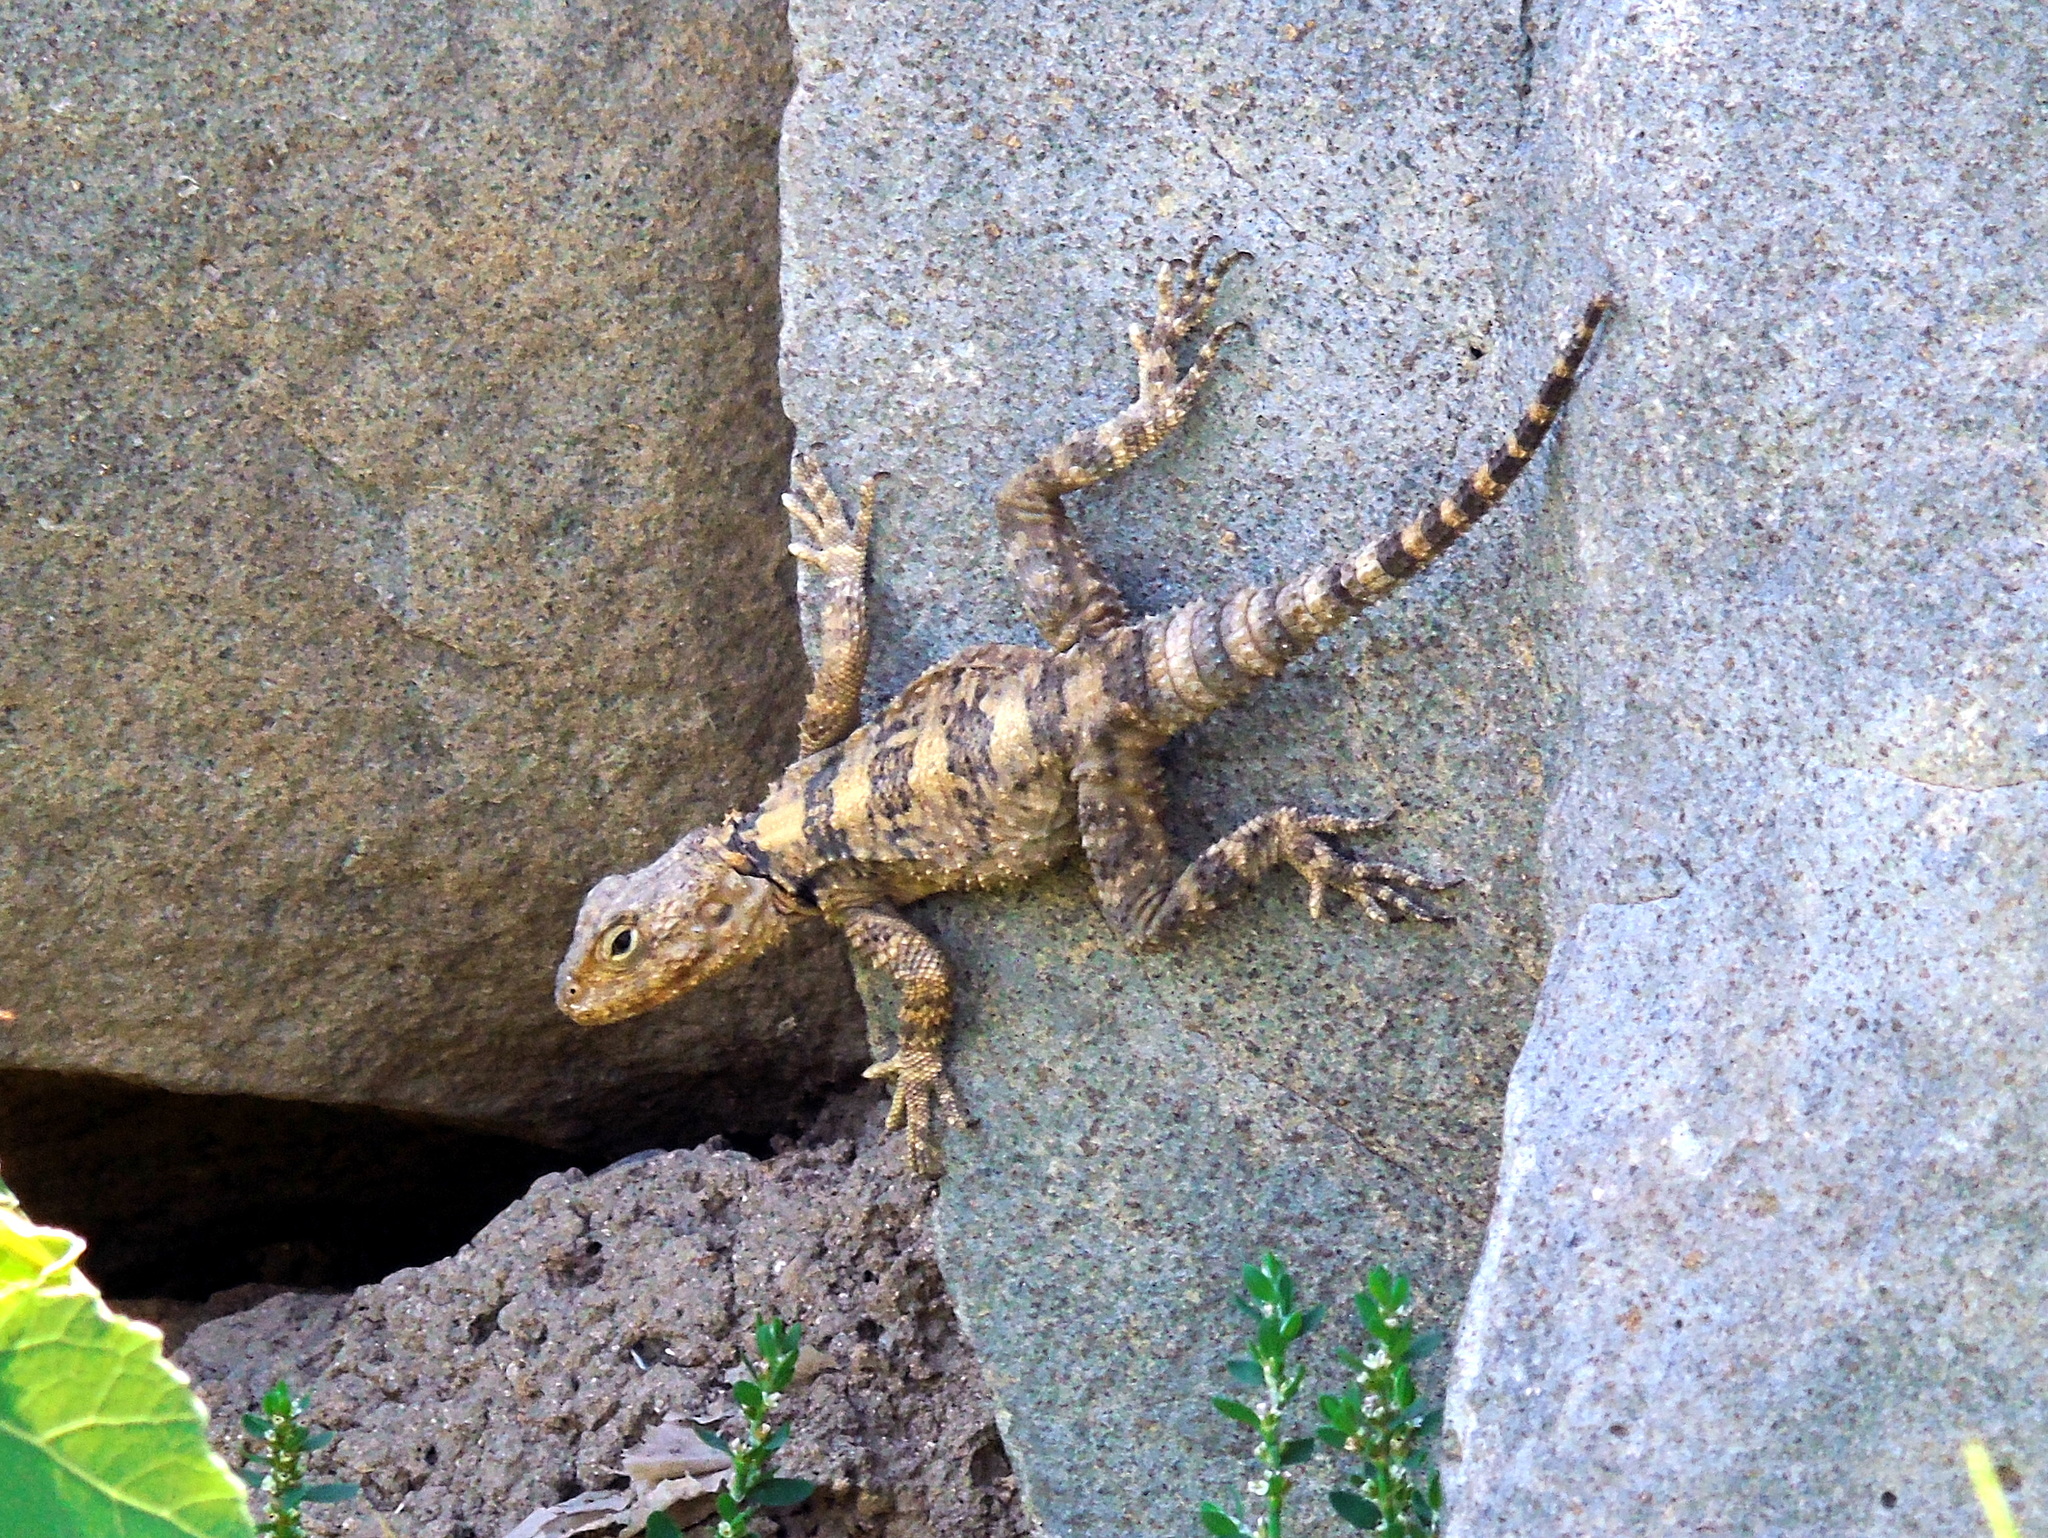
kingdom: Animalia
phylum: Chordata
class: Squamata
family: Agamidae
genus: Stellagama
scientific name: Stellagama stellio
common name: Starred agama
